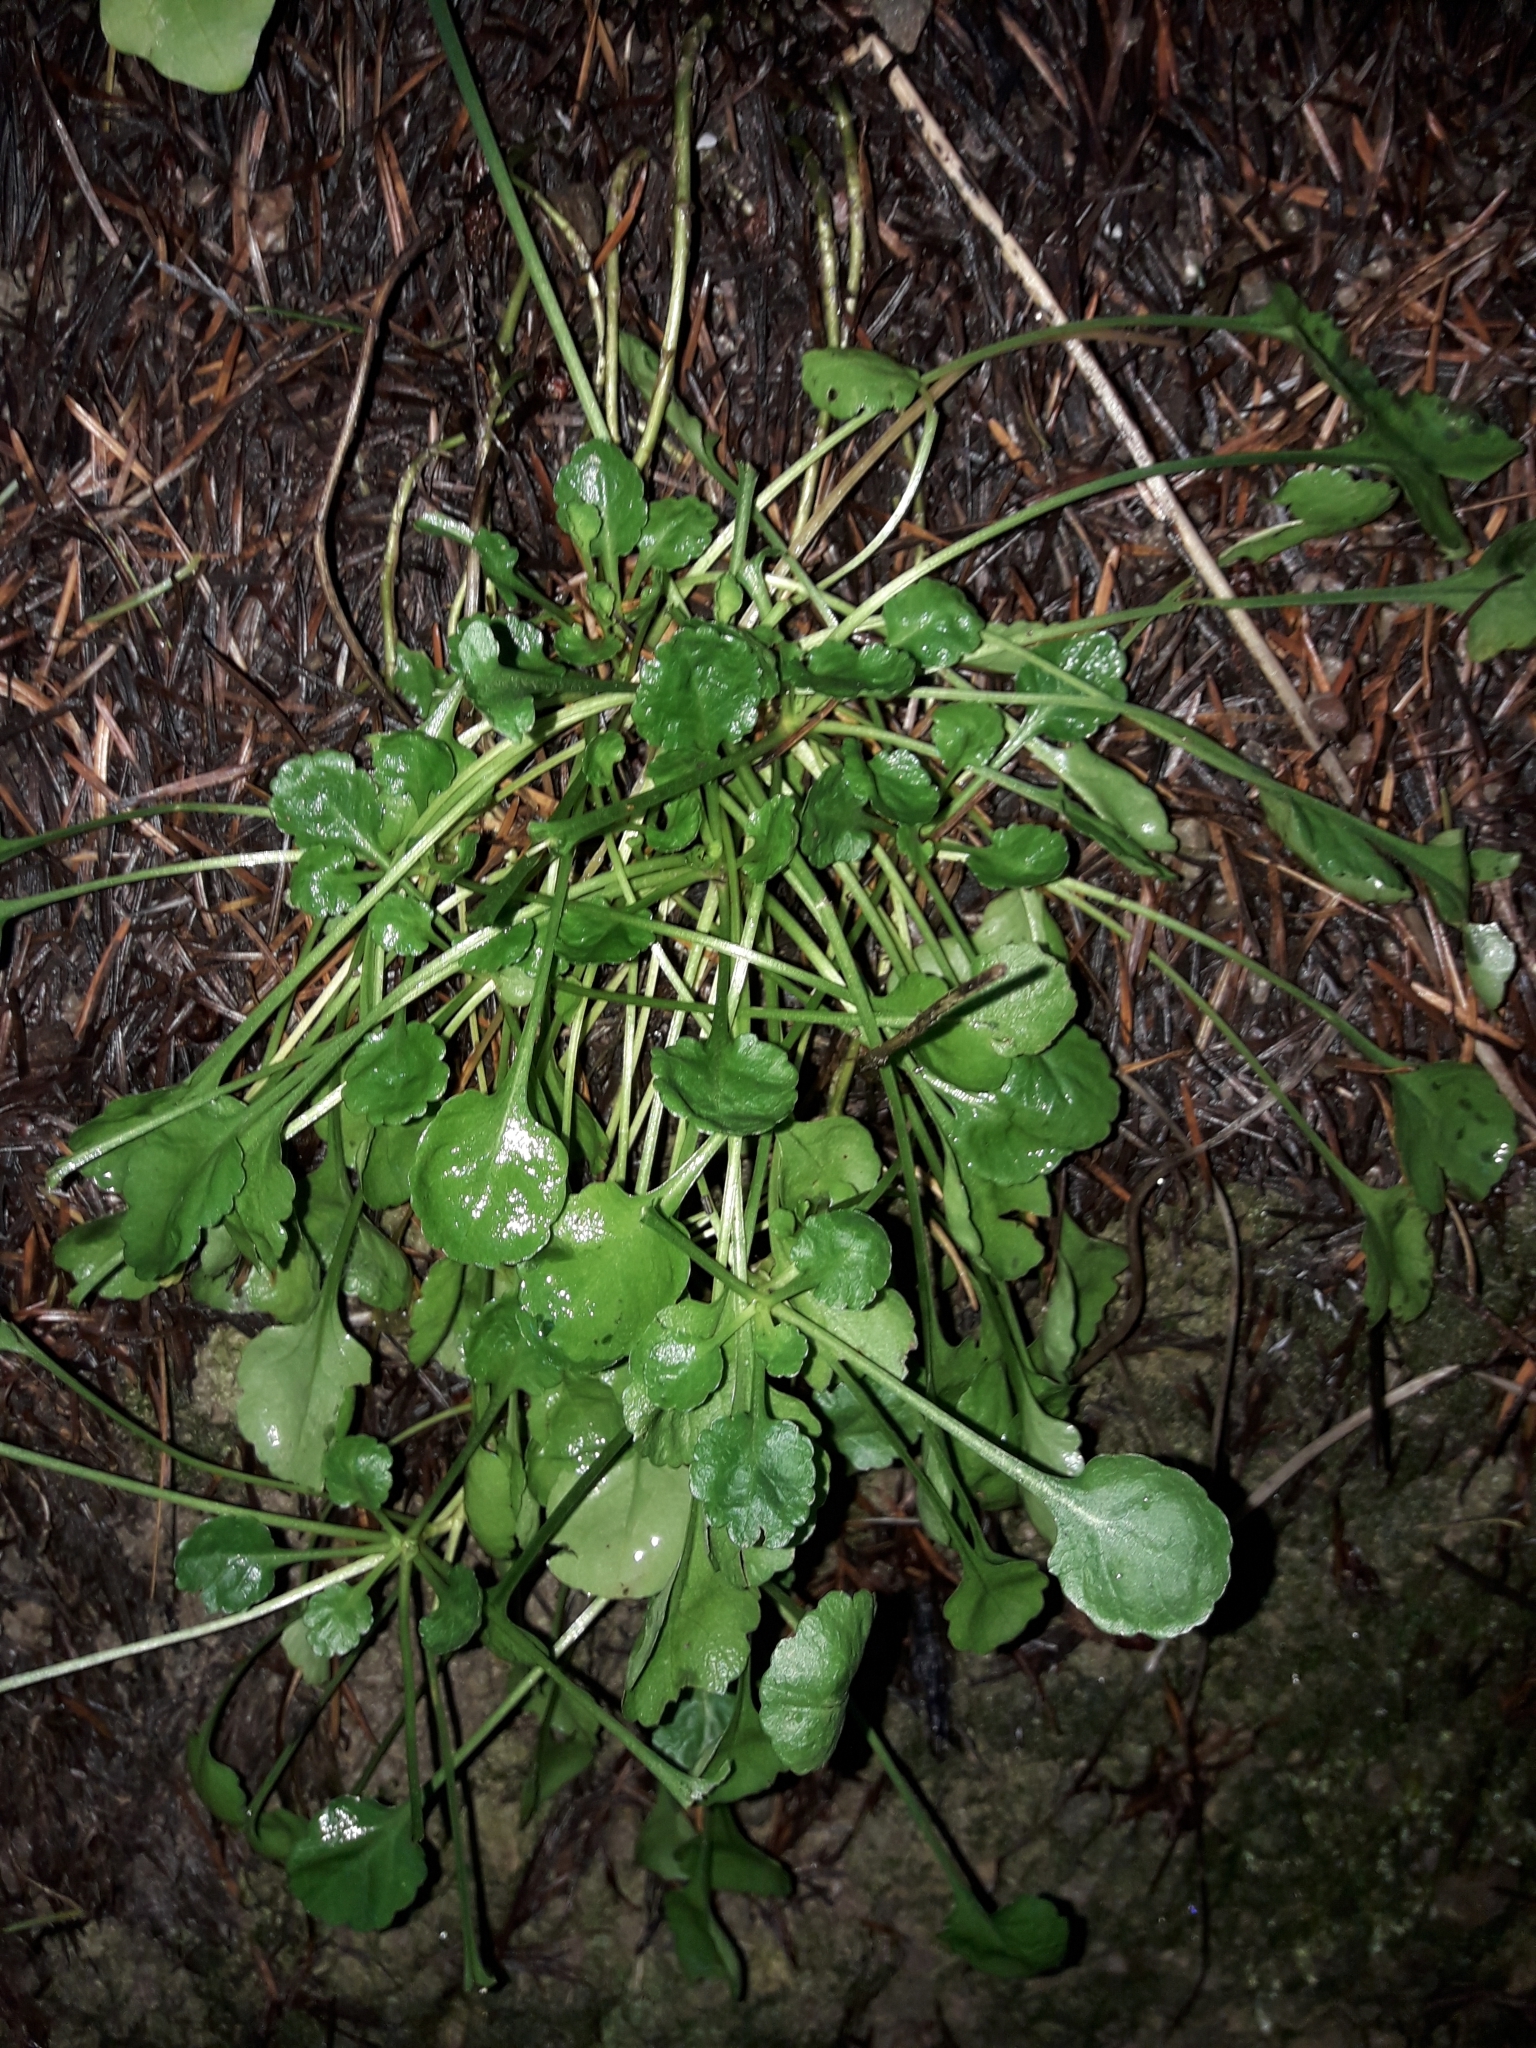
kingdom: Plantae
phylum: Tracheophyta
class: Magnoliopsida
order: Asterales
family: Asteraceae
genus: Leucanthemum
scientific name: Leucanthemum vulgare
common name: Oxeye daisy
